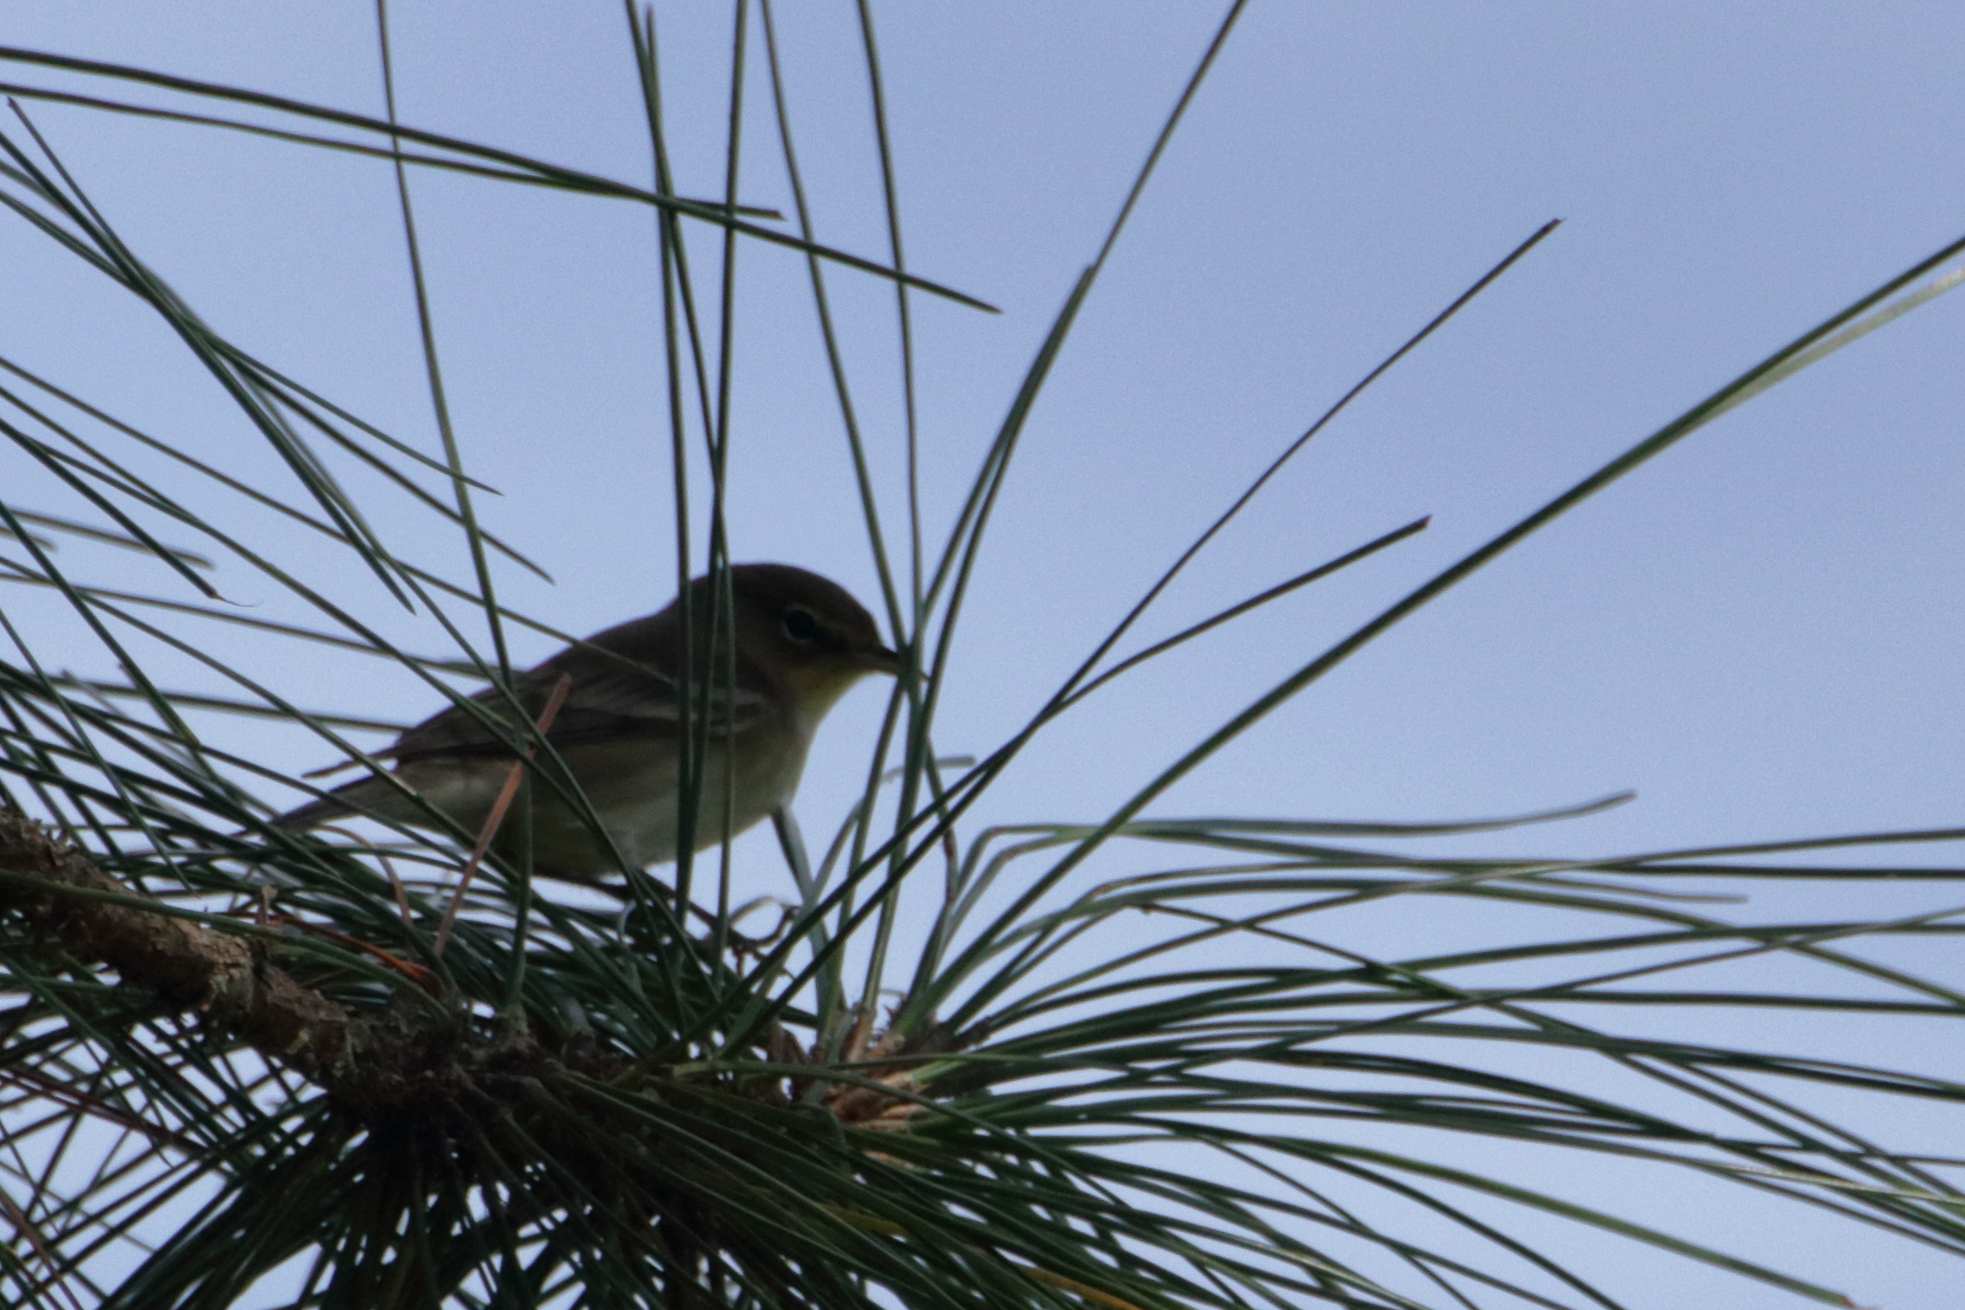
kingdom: Animalia
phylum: Chordata
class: Aves
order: Passeriformes
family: Parulidae
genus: Setophaga
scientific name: Setophaga pinus
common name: Pine warbler
